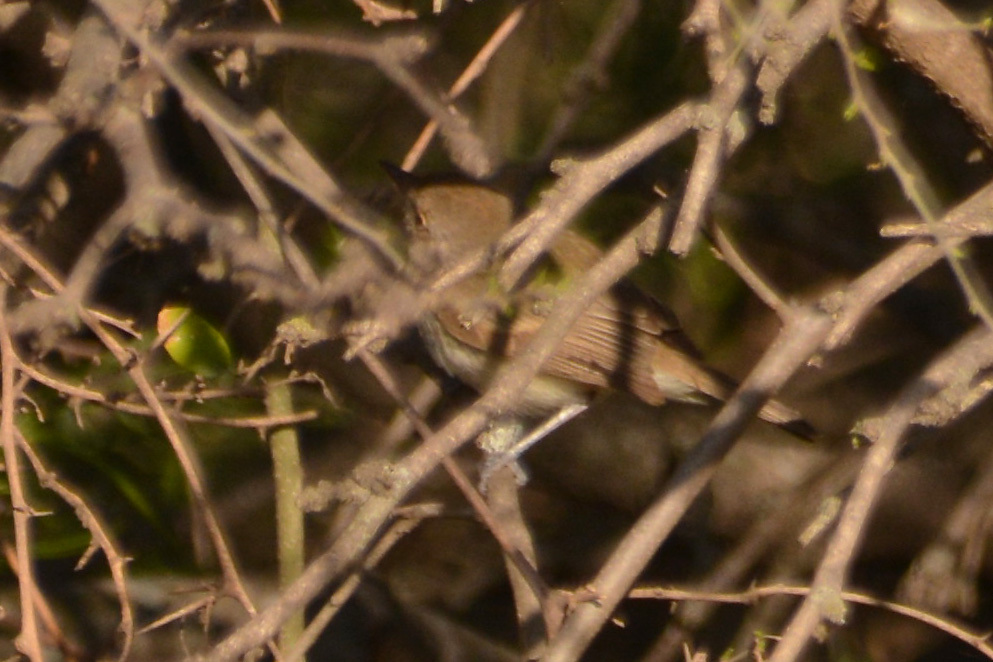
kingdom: Animalia
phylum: Chordata
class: Aves
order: Passeriformes
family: Tyrannidae
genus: Euscarthmus
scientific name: Euscarthmus meloryphus
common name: Tawny-crowned pygmy tyrant
